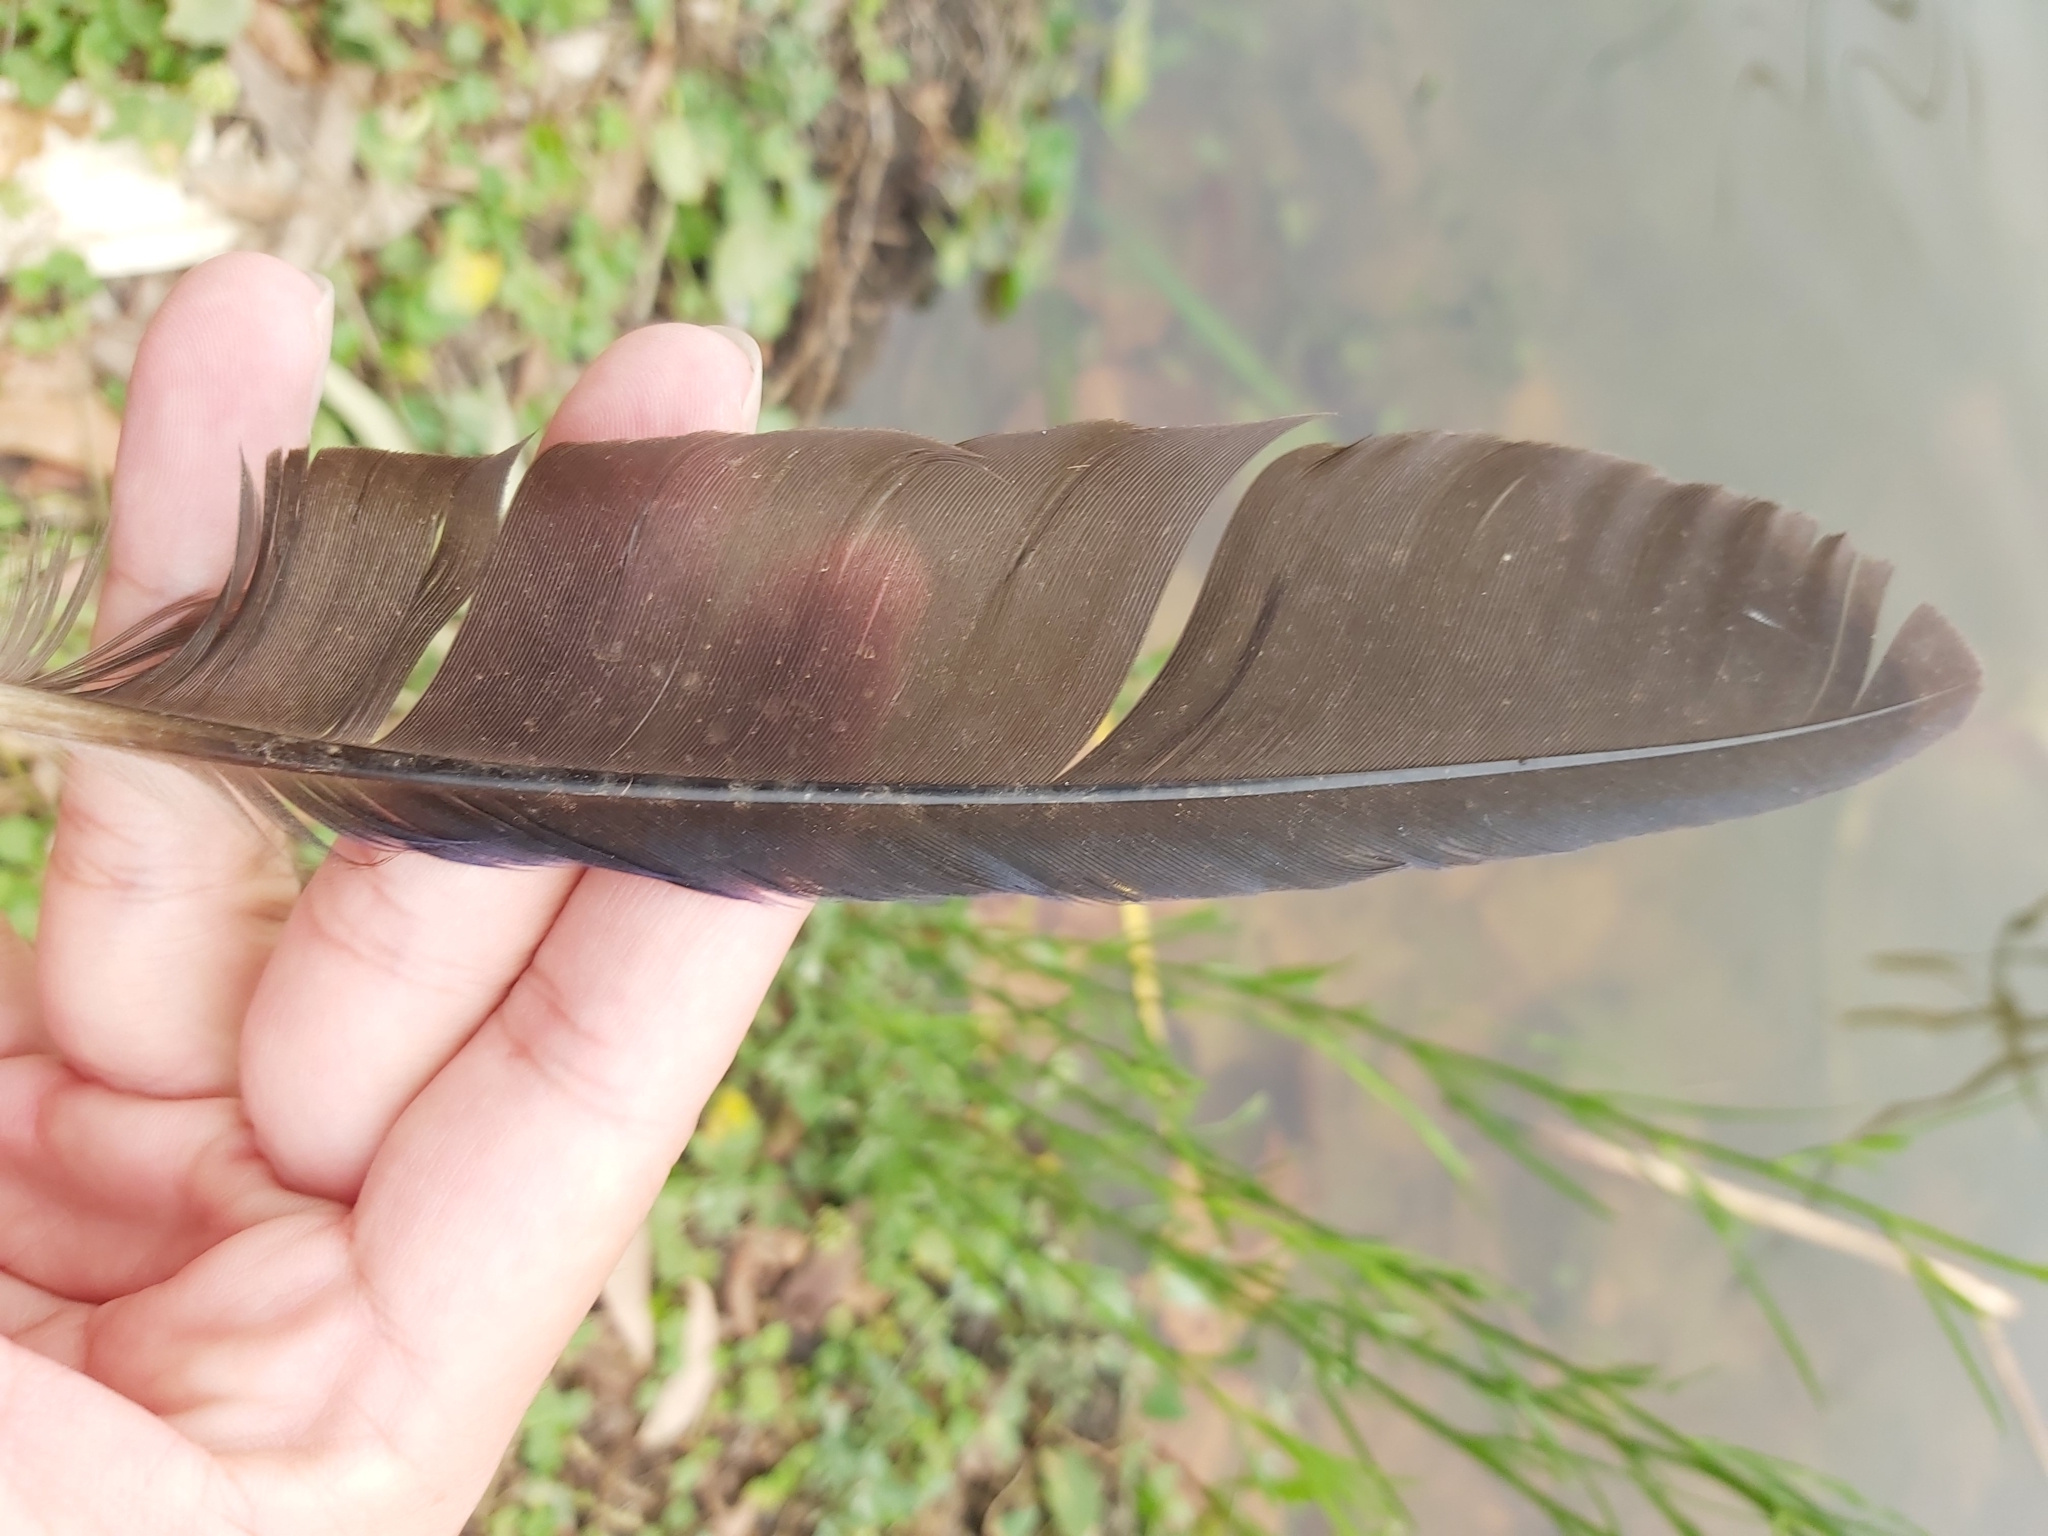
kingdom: Animalia
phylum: Chordata
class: Aves
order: Gruiformes
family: Rallidae
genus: Porphyrio
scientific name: Porphyrio melanotus
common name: Australasian swamphen
